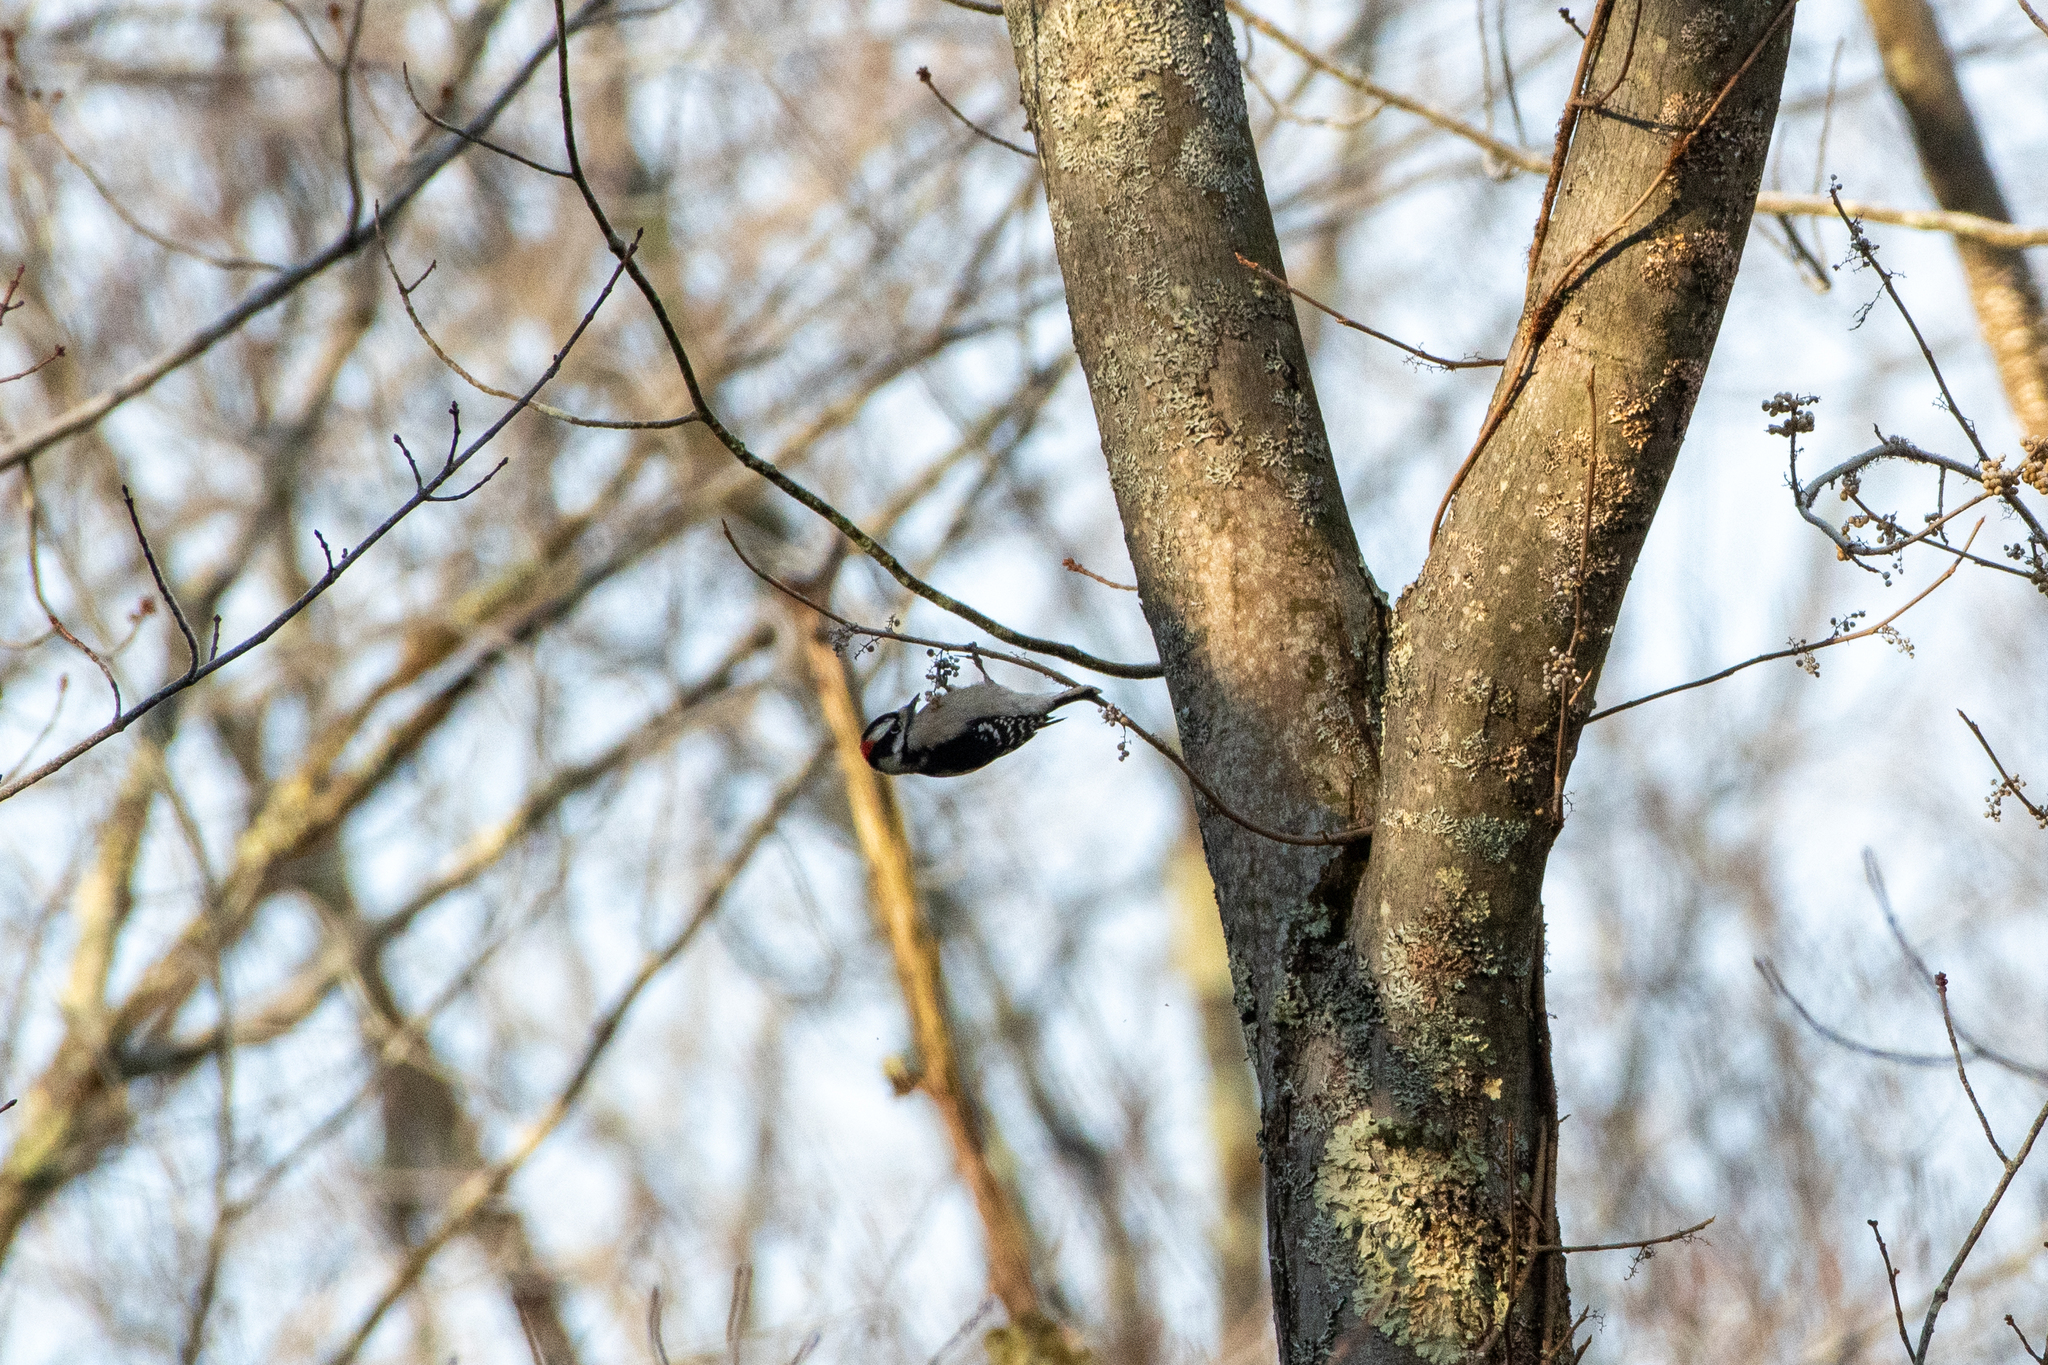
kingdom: Animalia
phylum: Chordata
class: Aves
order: Piciformes
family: Picidae
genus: Dryobates
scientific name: Dryobates pubescens
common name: Downy woodpecker
